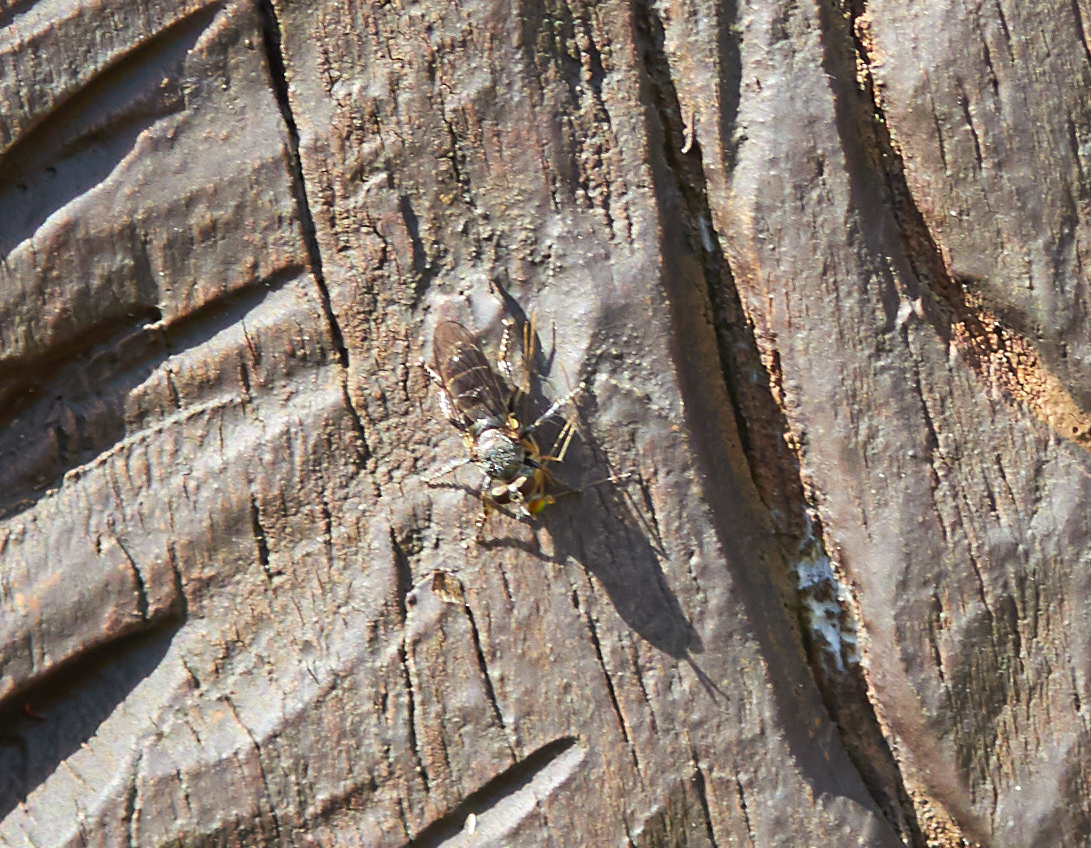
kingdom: Animalia
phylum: Arthropoda
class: Insecta
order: Diptera
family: Asilidae
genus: Atomosia
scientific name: Atomosia puella
